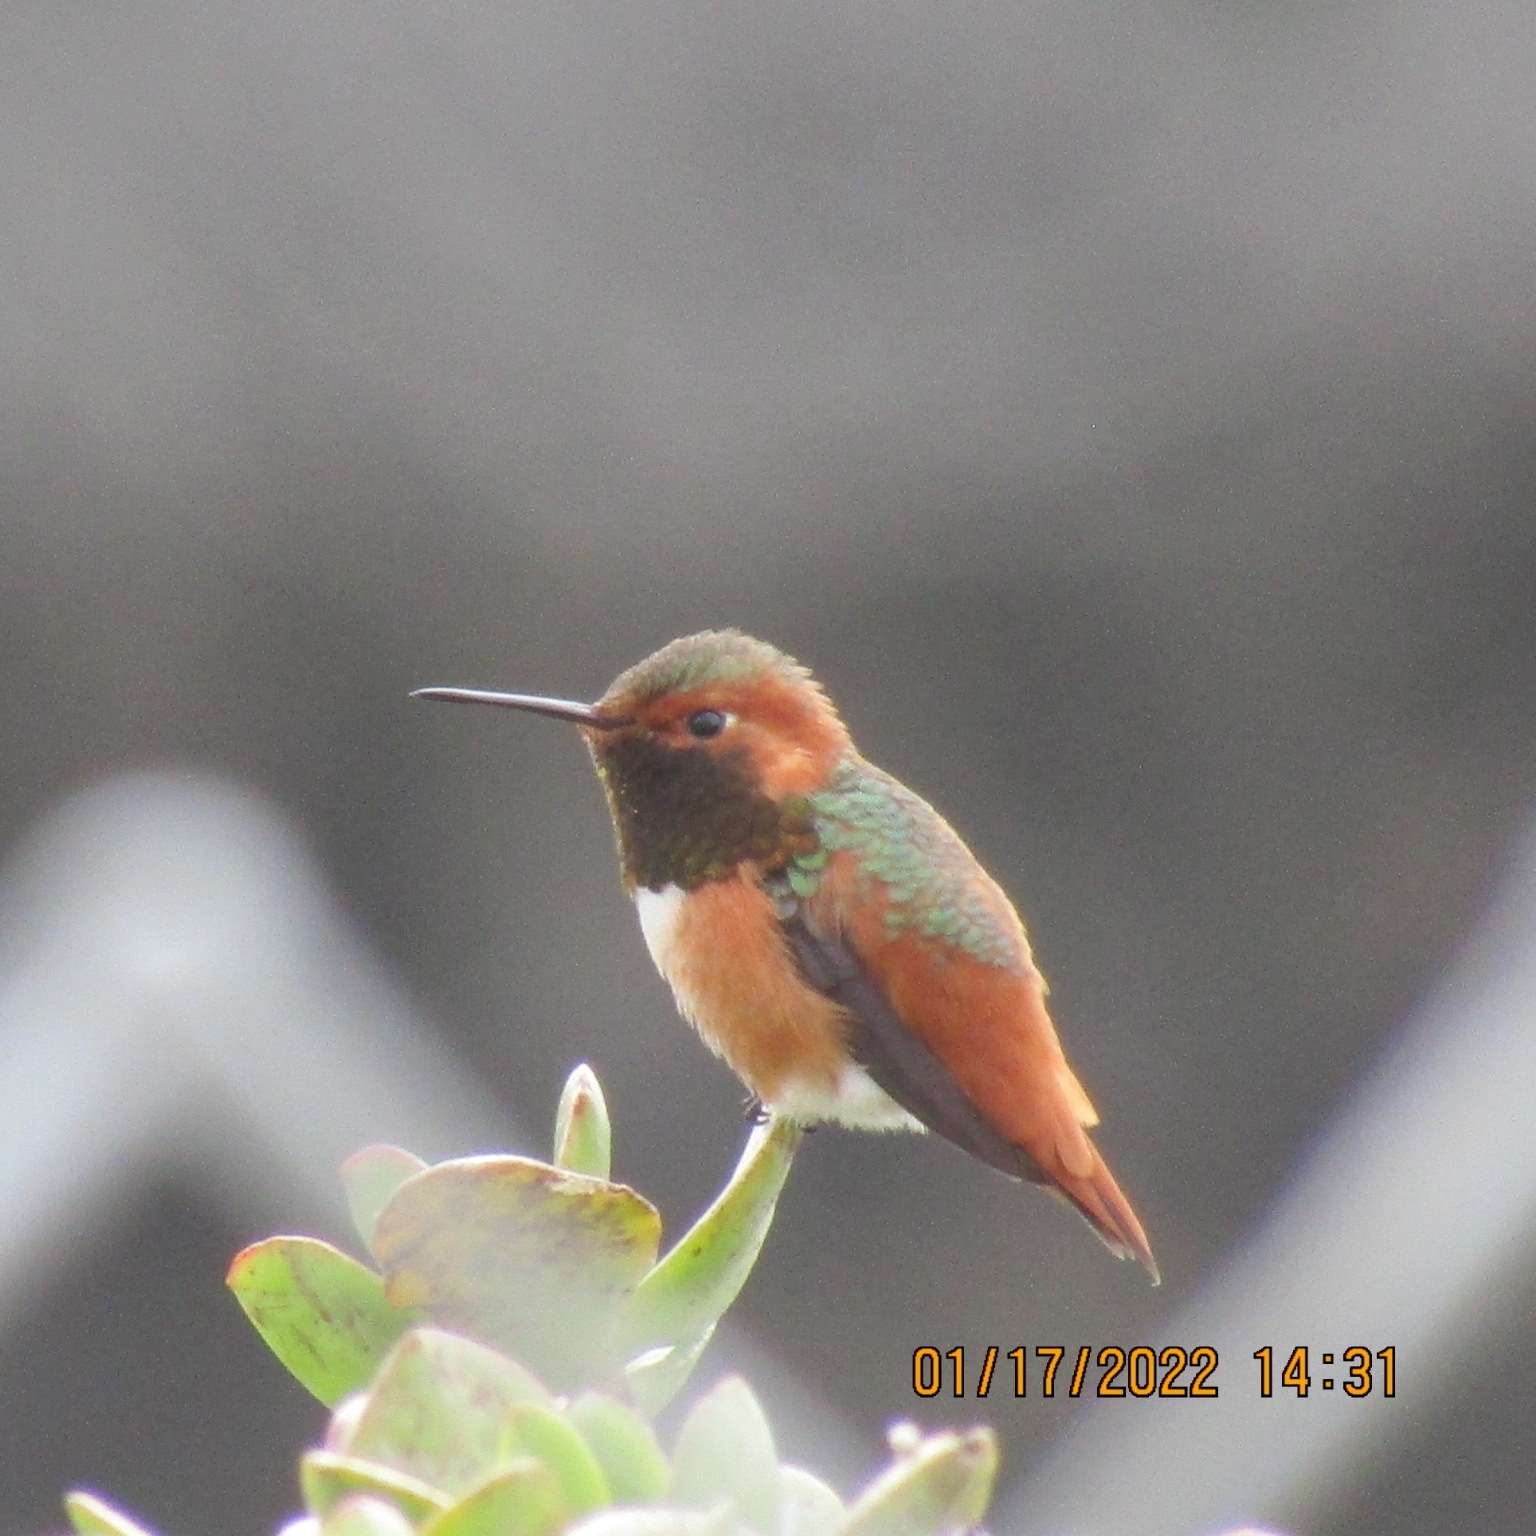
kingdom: Animalia
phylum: Chordata
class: Aves
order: Apodiformes
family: Trochilidae
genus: Selasphorus
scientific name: Selasphorus sasin
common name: Allen's hummingbird
